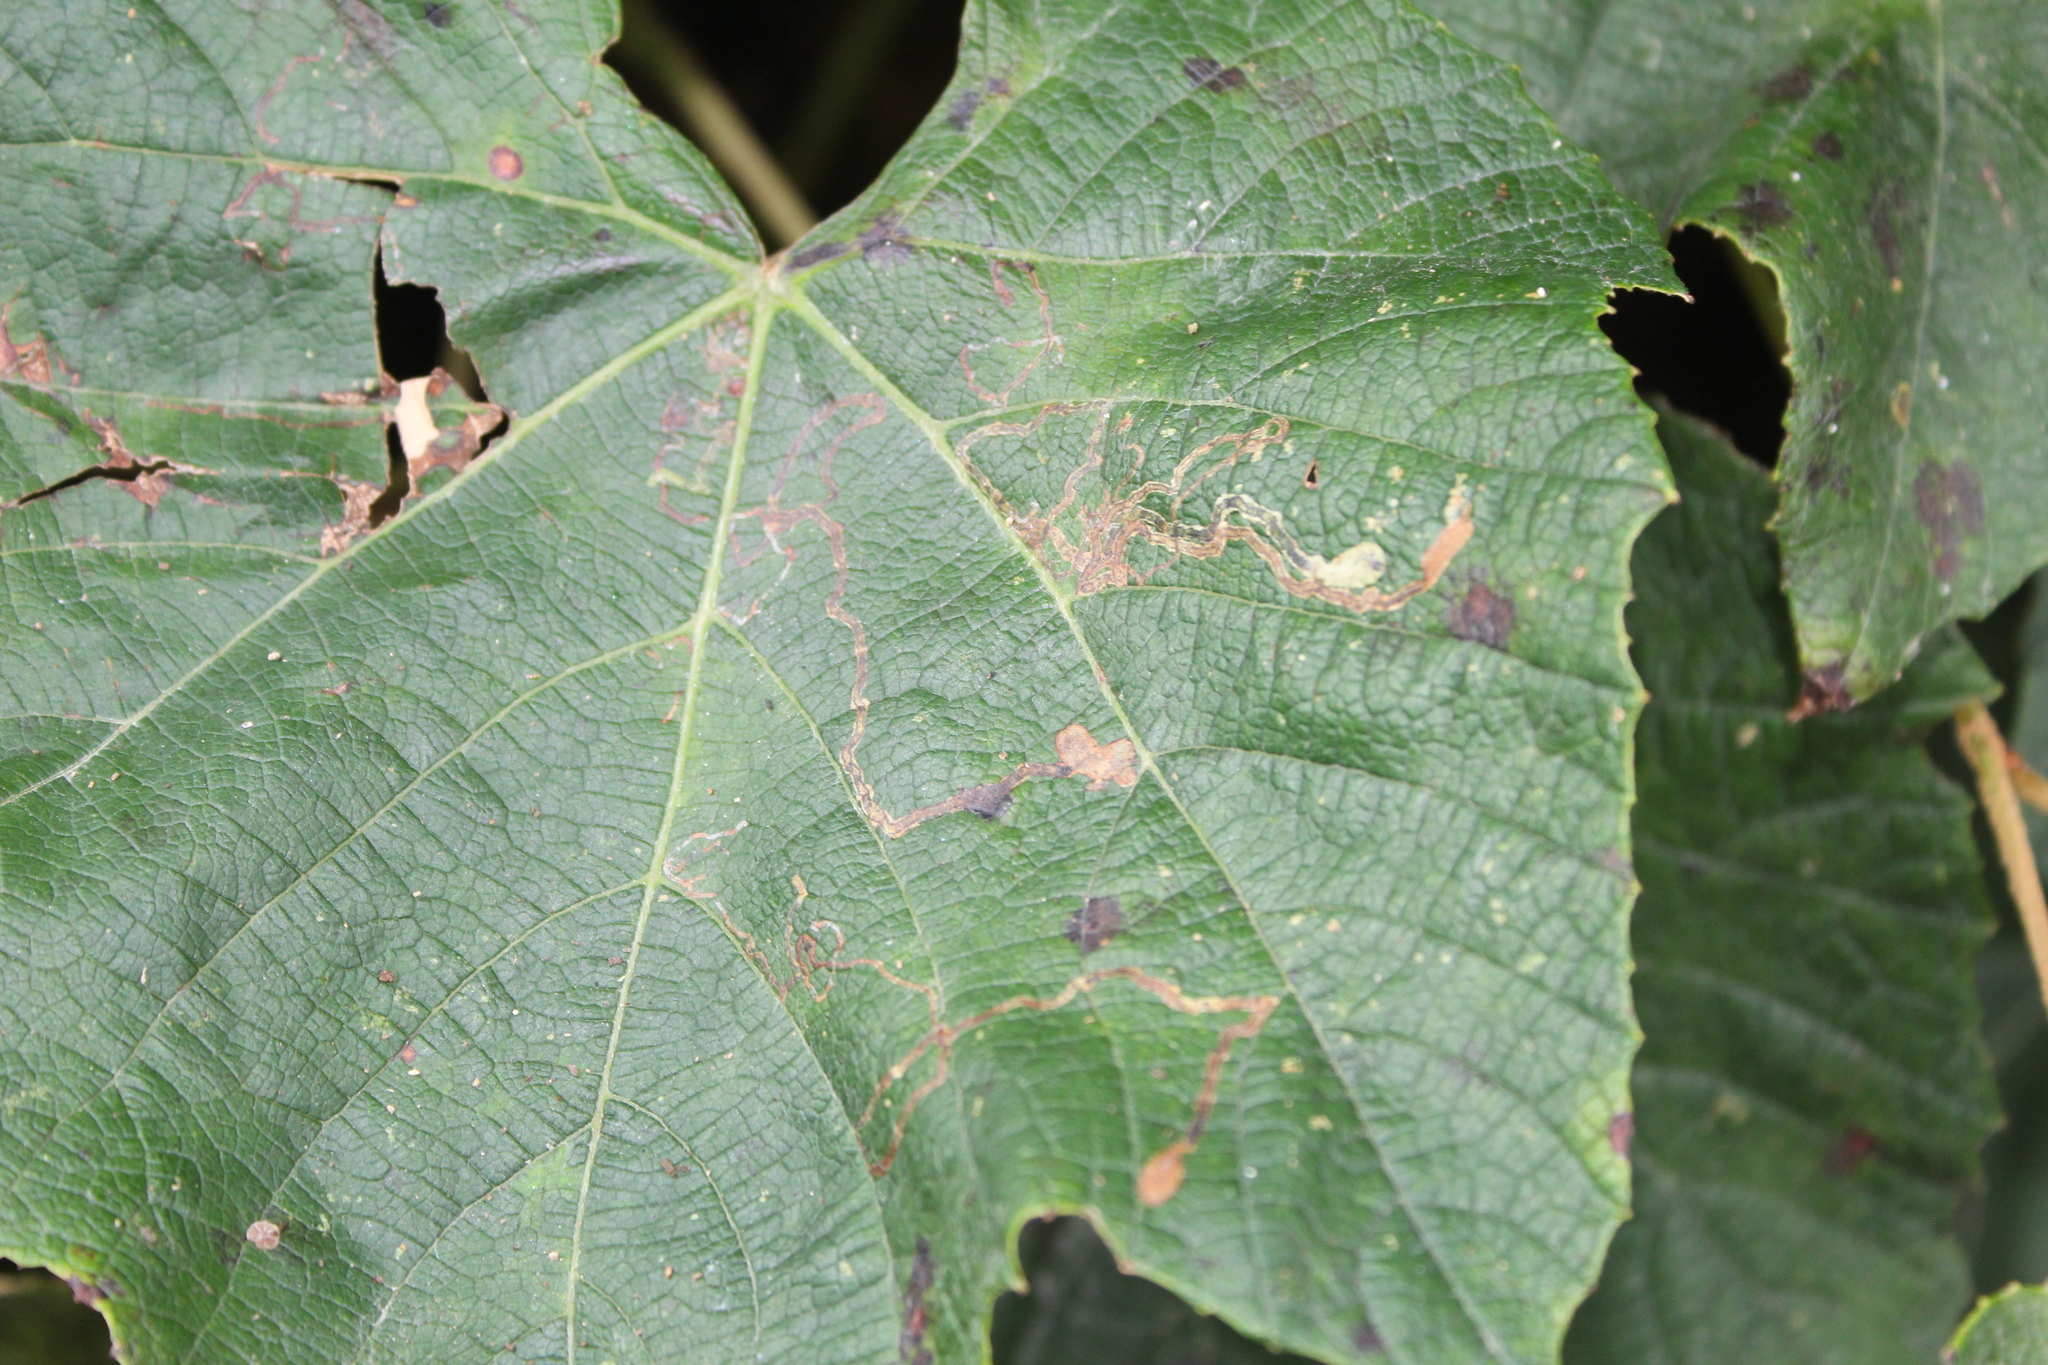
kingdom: Animalia
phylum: Arthropoda
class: Insecta
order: Lepidoptera
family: Gracillariidae
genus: Phyllocnistis
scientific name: Phyllocnistis vitifoliella
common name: Grape leaf-miner moth
